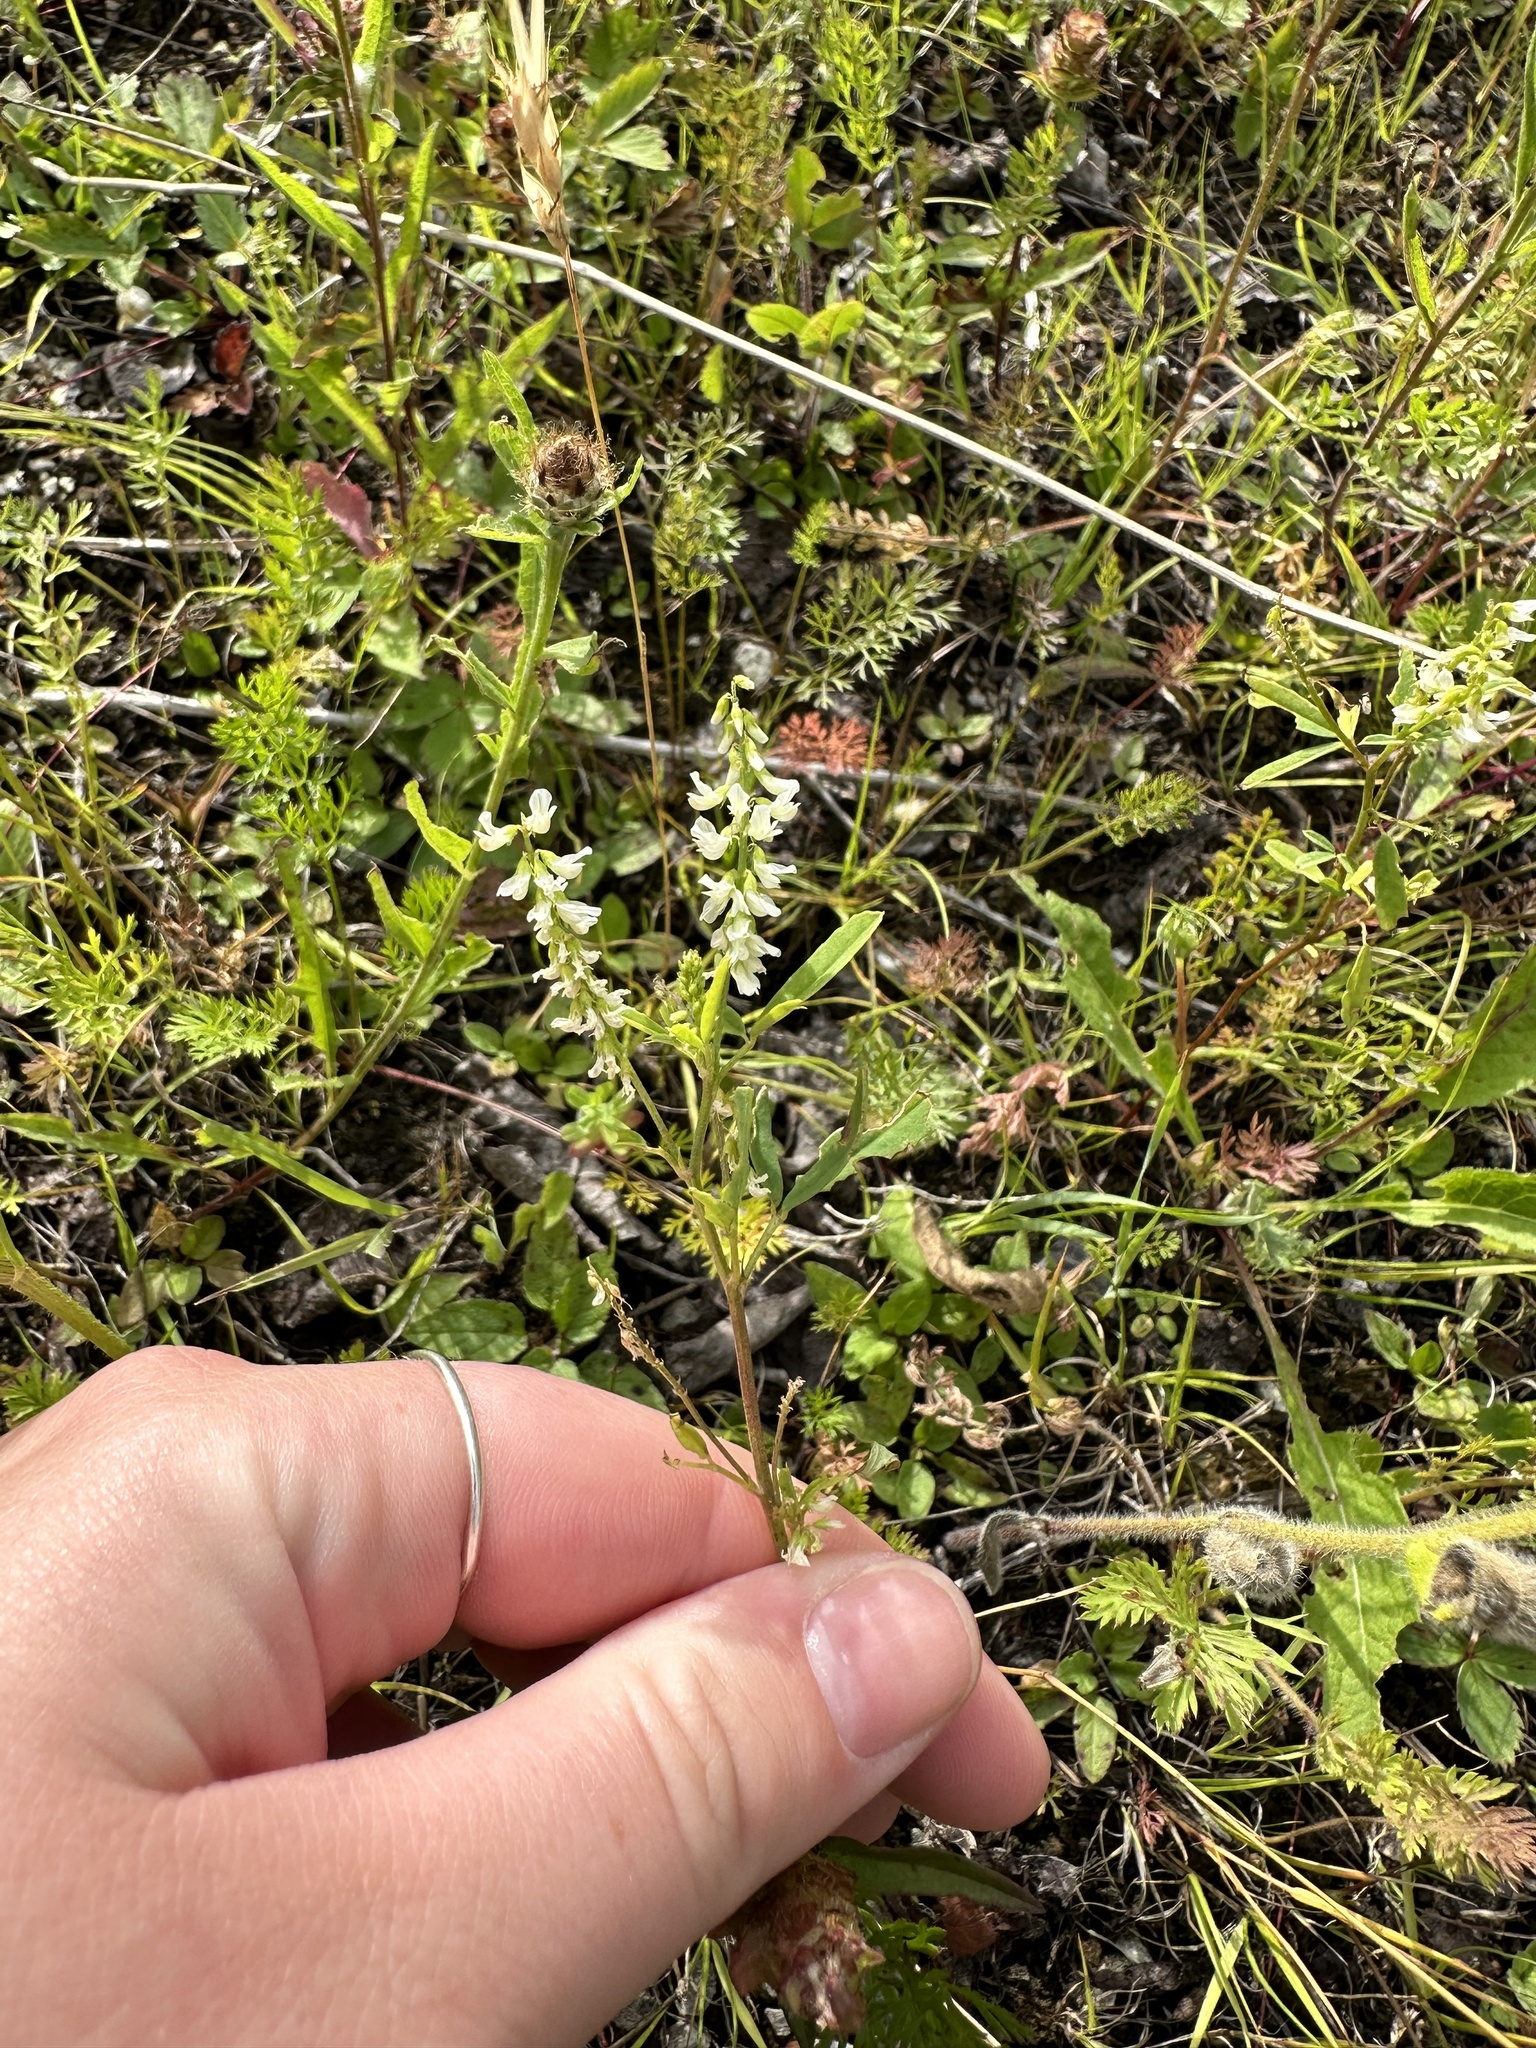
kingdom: Plantae
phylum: Tracheophyta
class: Magnoliopsida
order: Fabales
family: Fabaceae
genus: Melilotus
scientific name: Melilotus albus
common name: White melilot
